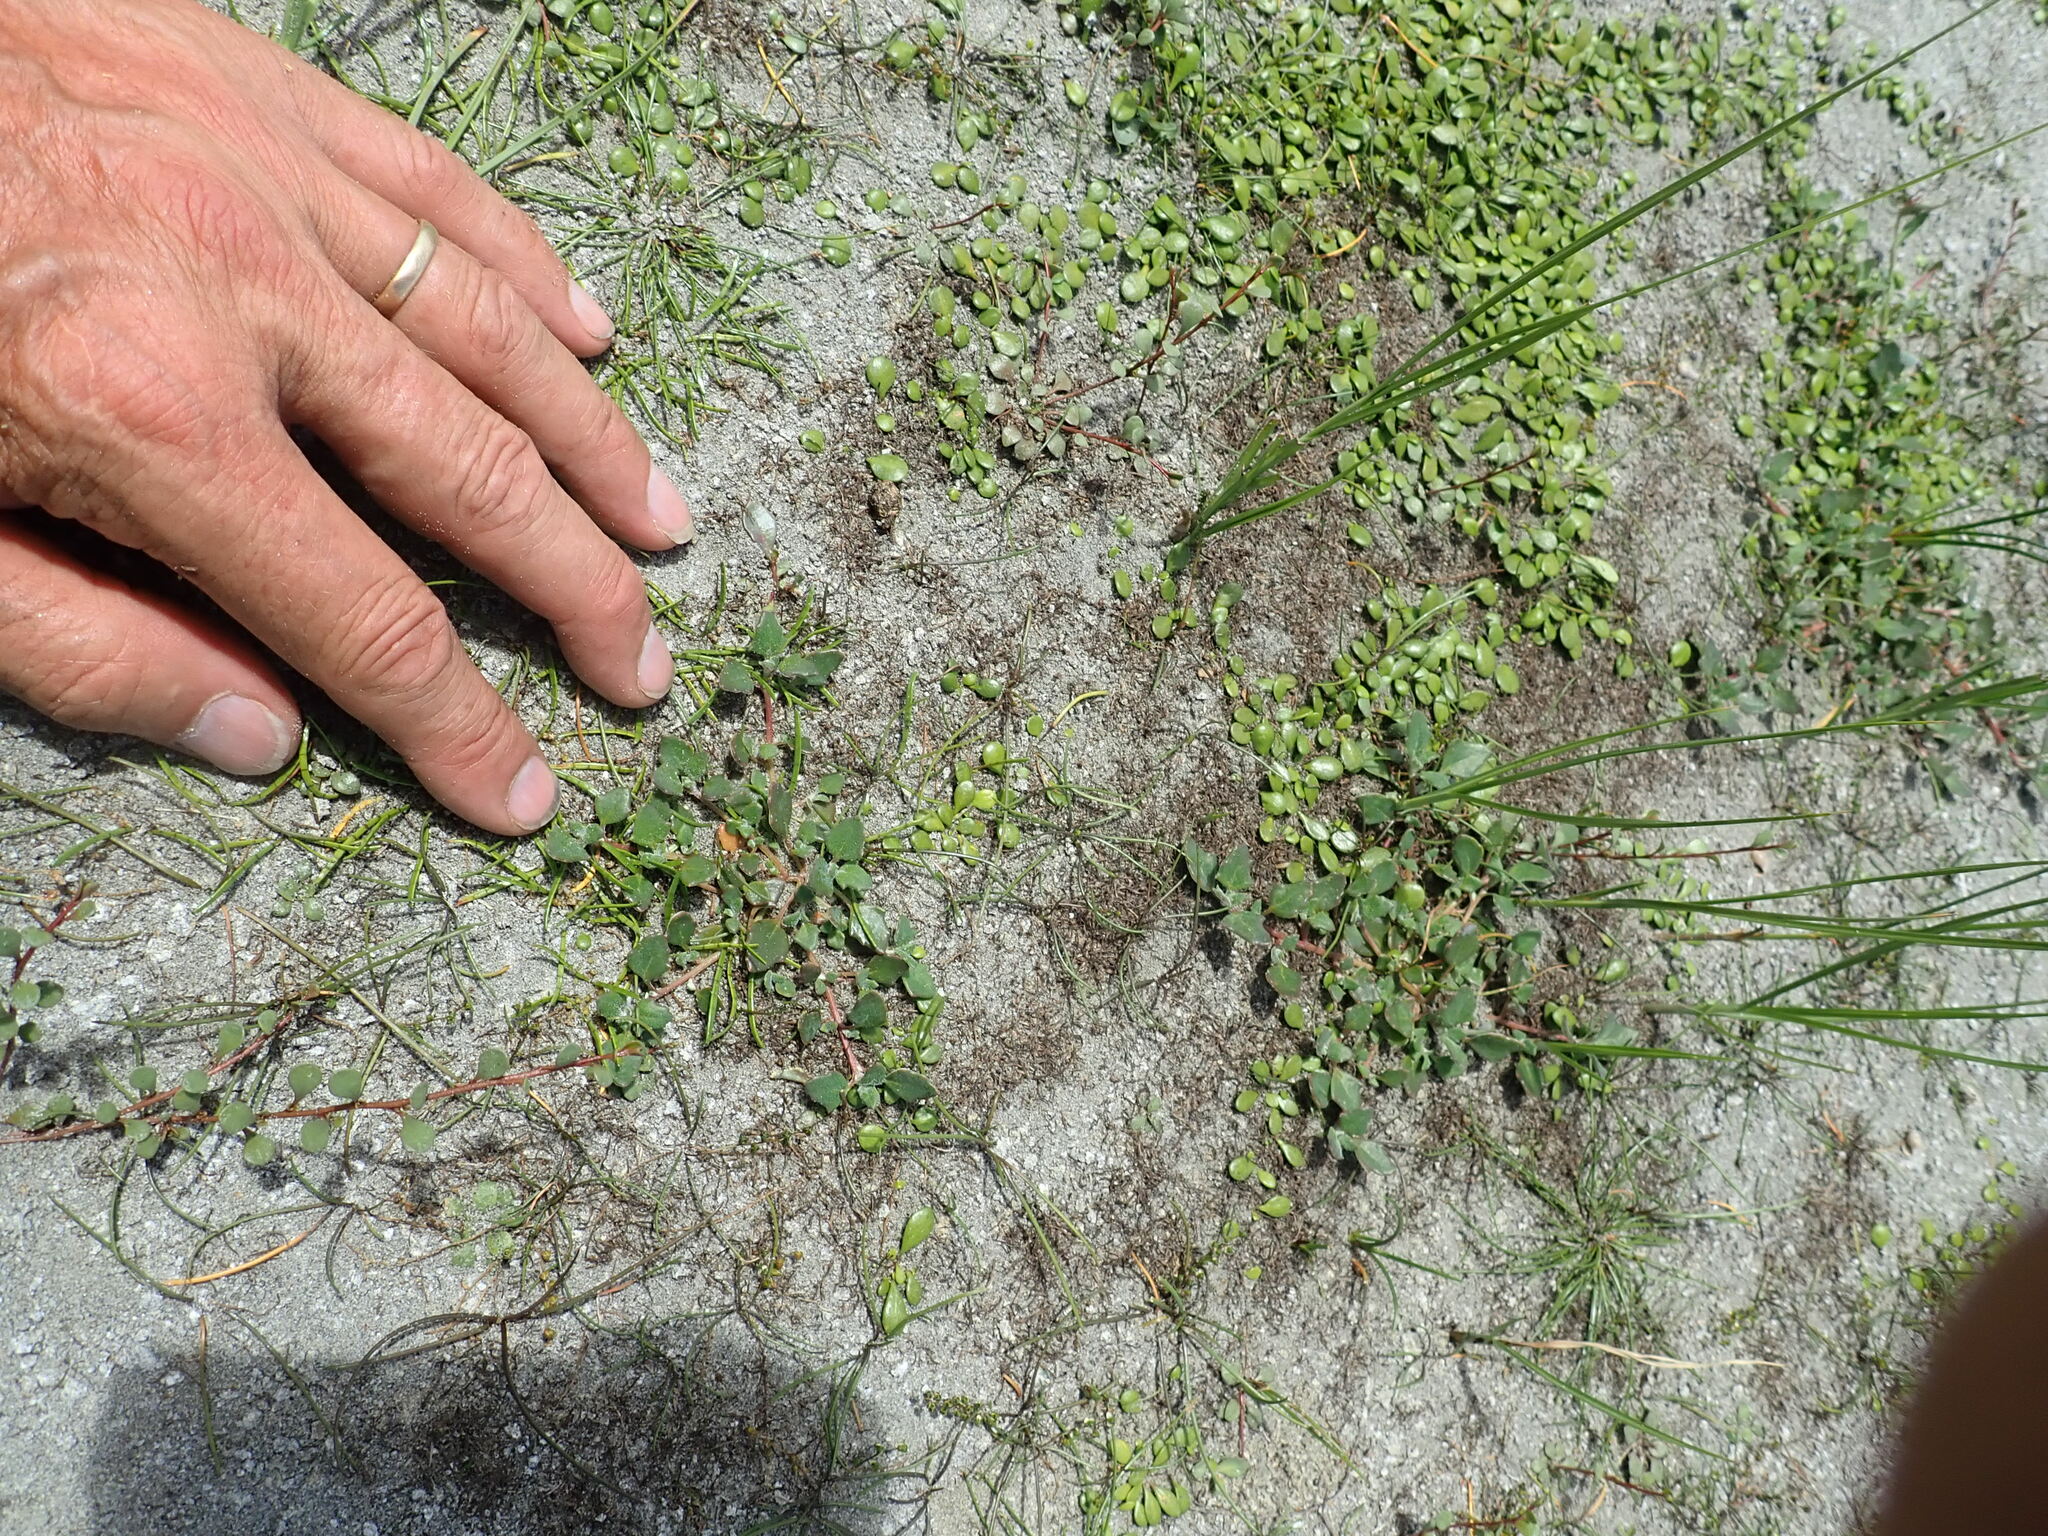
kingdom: Plantae
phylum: Tracheophyta
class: Magnoliopsida
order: Caryophyllales
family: Amaranthaceae
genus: Oxybasis
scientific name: Oxybasis ambigua
